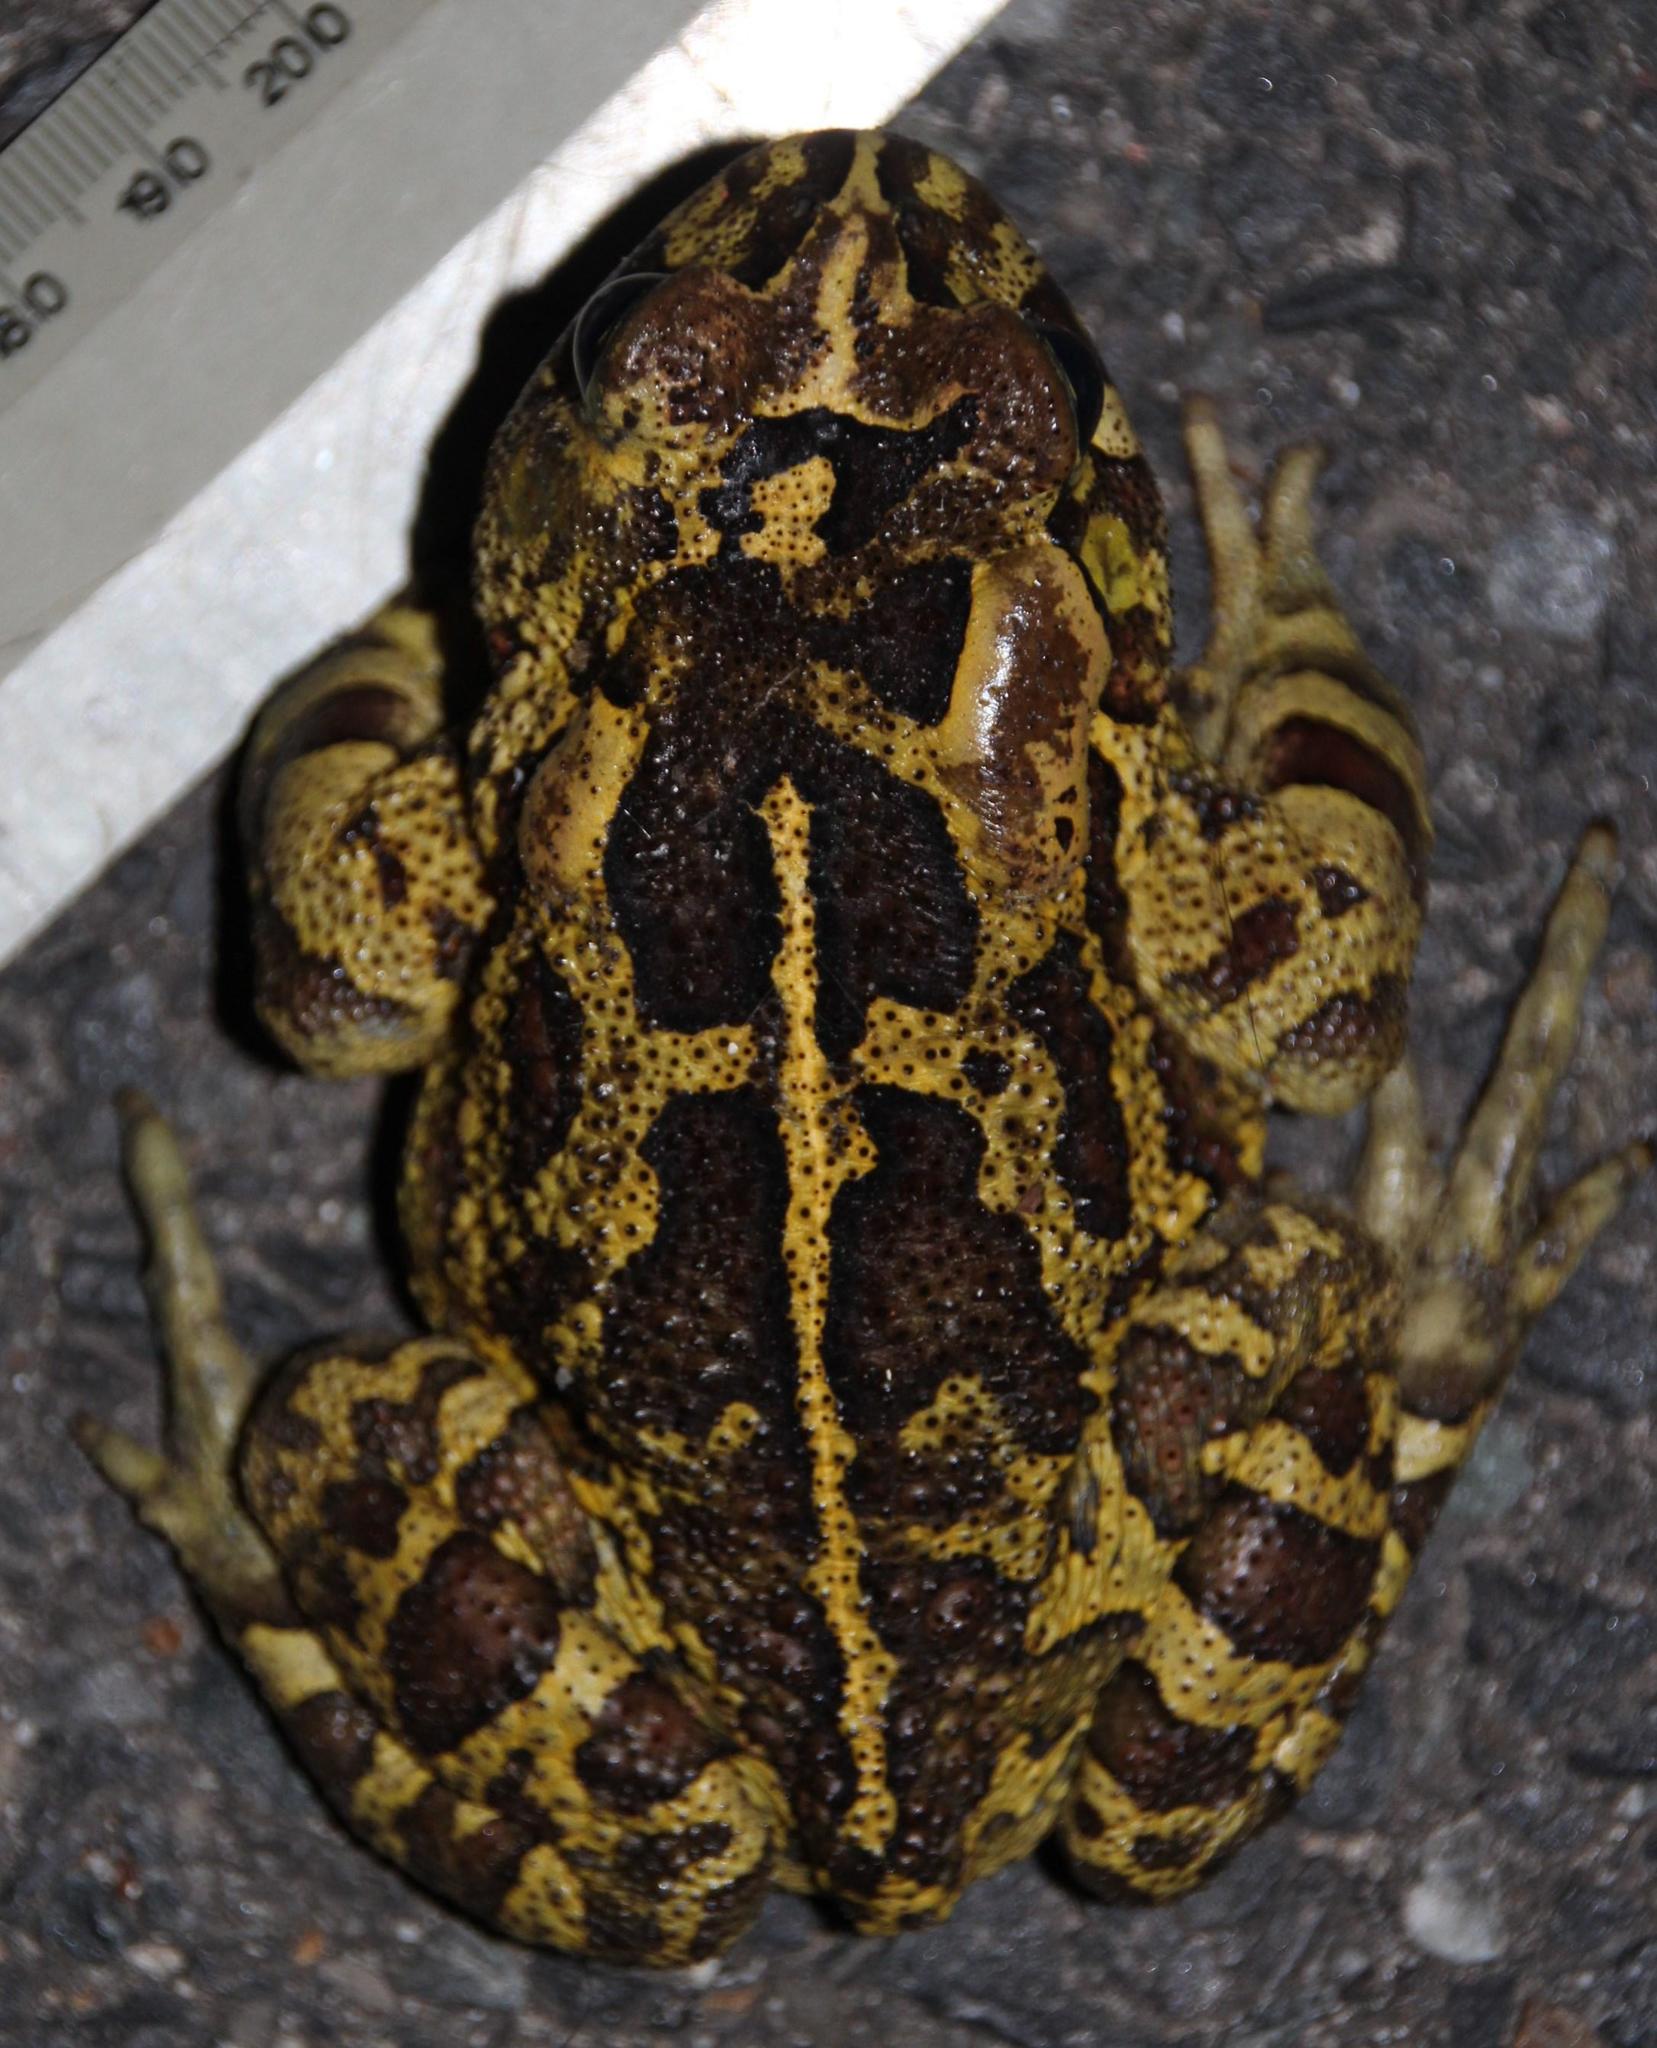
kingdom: Animalia
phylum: Chordata
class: Amphibia
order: Anura
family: Bufonidae
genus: Sclerophrys
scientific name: Sclerophrys pantherina
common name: Panther toad
